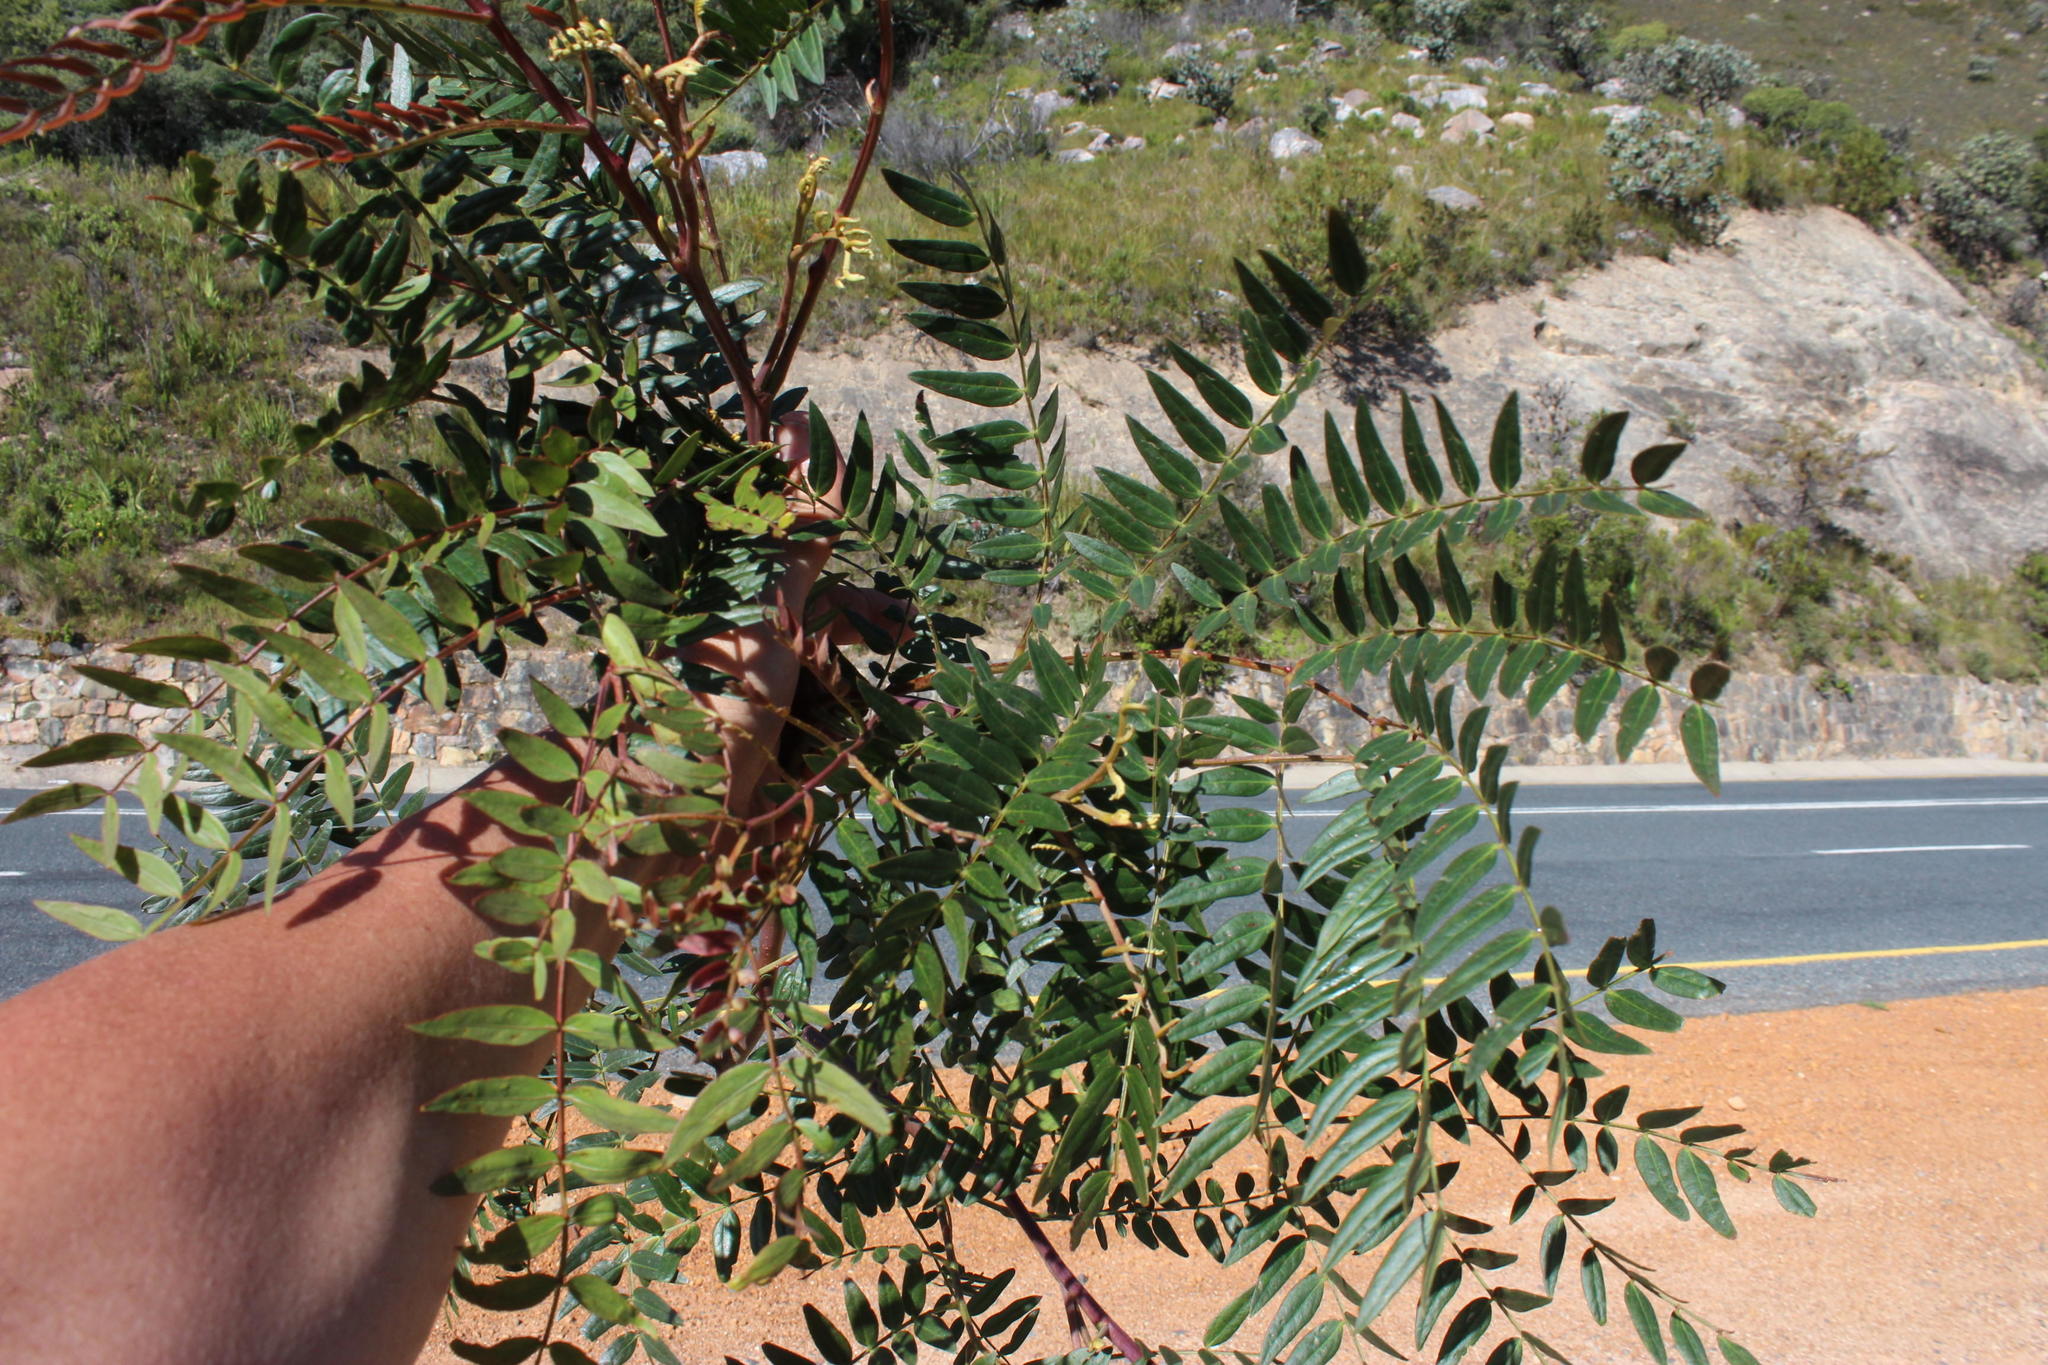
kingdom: Plantae
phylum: Tracheophyta
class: Magnoliopsida
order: Fabales
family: Fabaceae
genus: Acacia
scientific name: Acacia elata
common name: Cedar wattle
